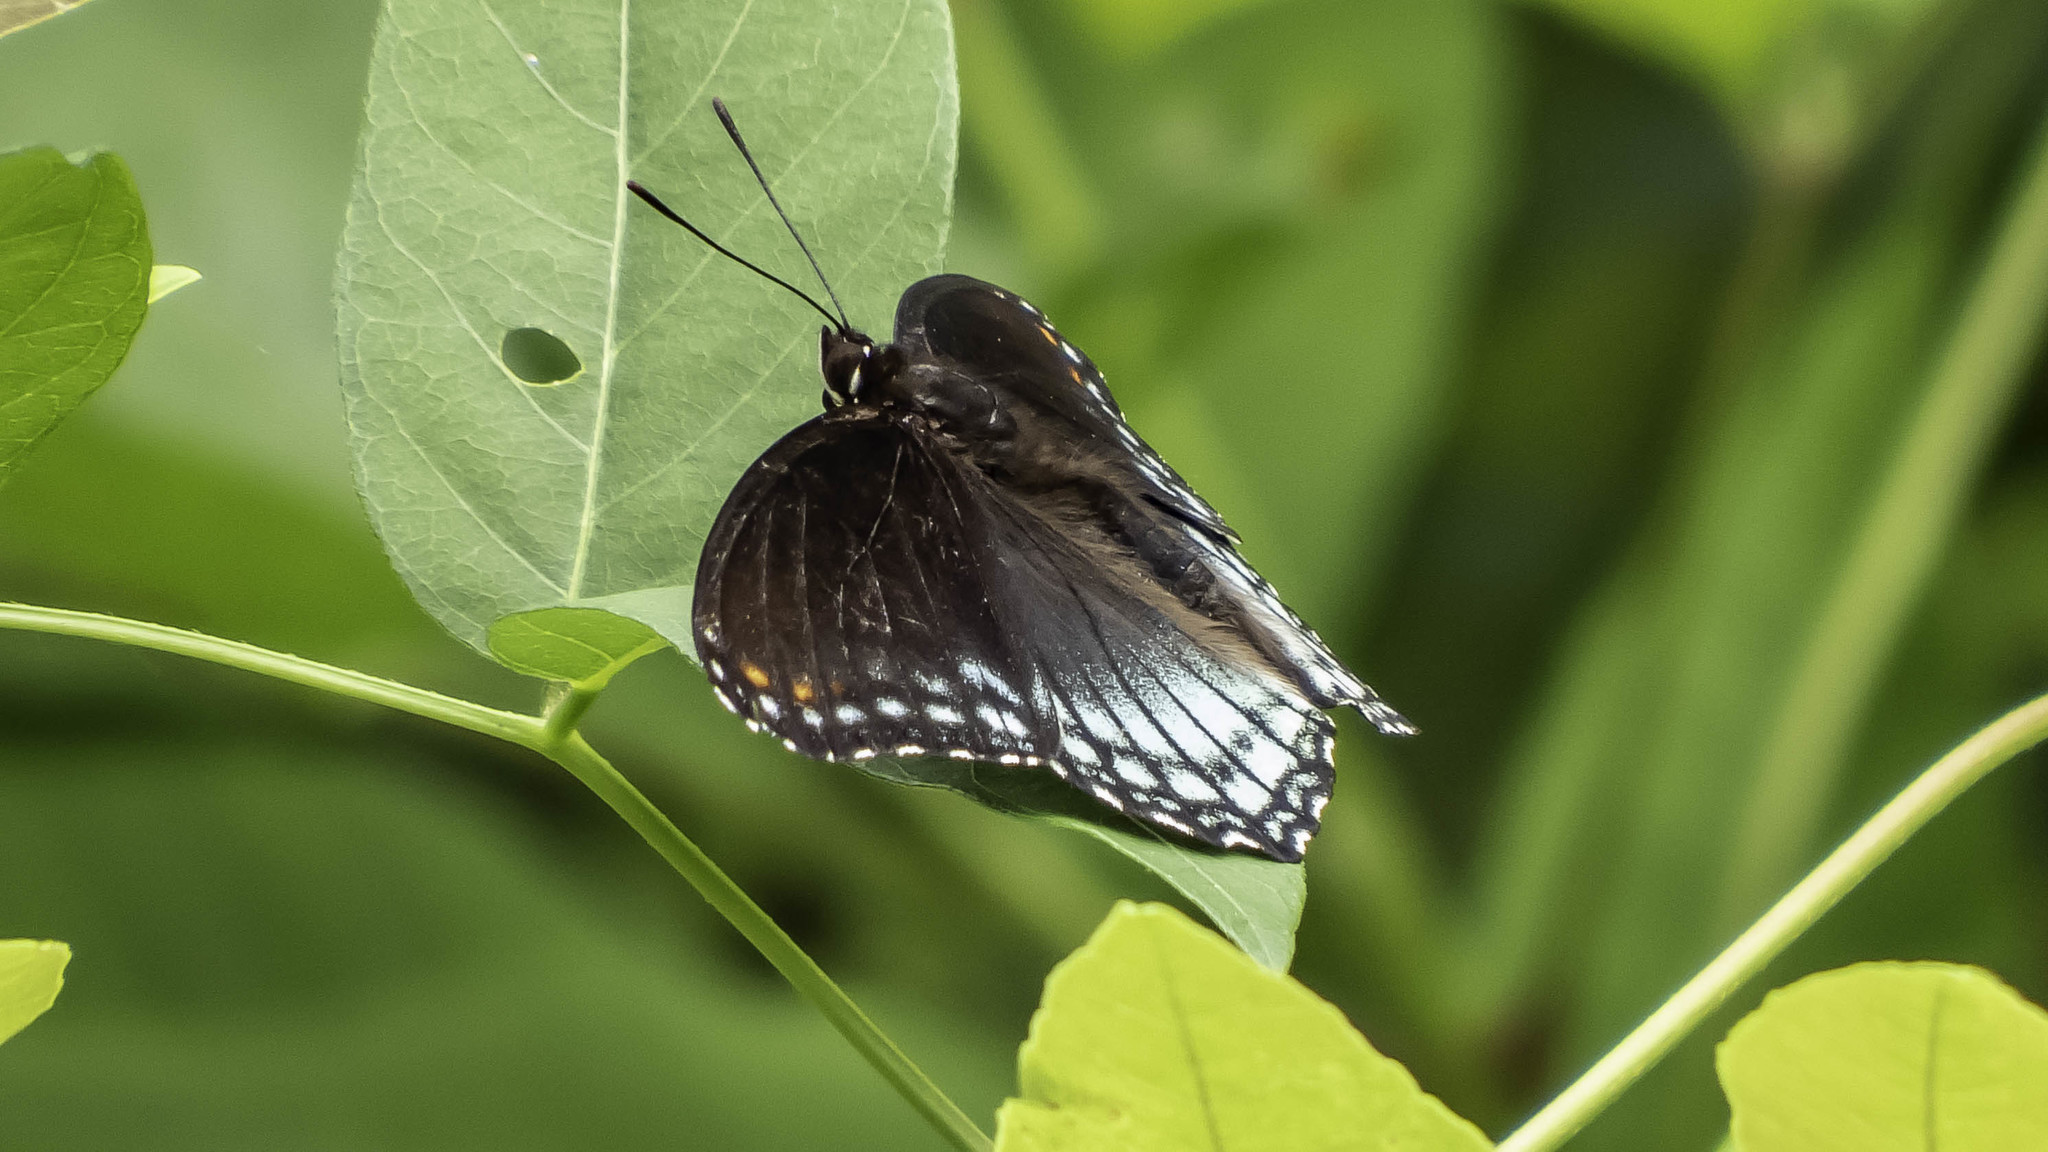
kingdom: Animalia
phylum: Arthropoda
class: Insecta
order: Lepidoptera
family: Nymphalidae
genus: Limenitis
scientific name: Limenitis astyanax
